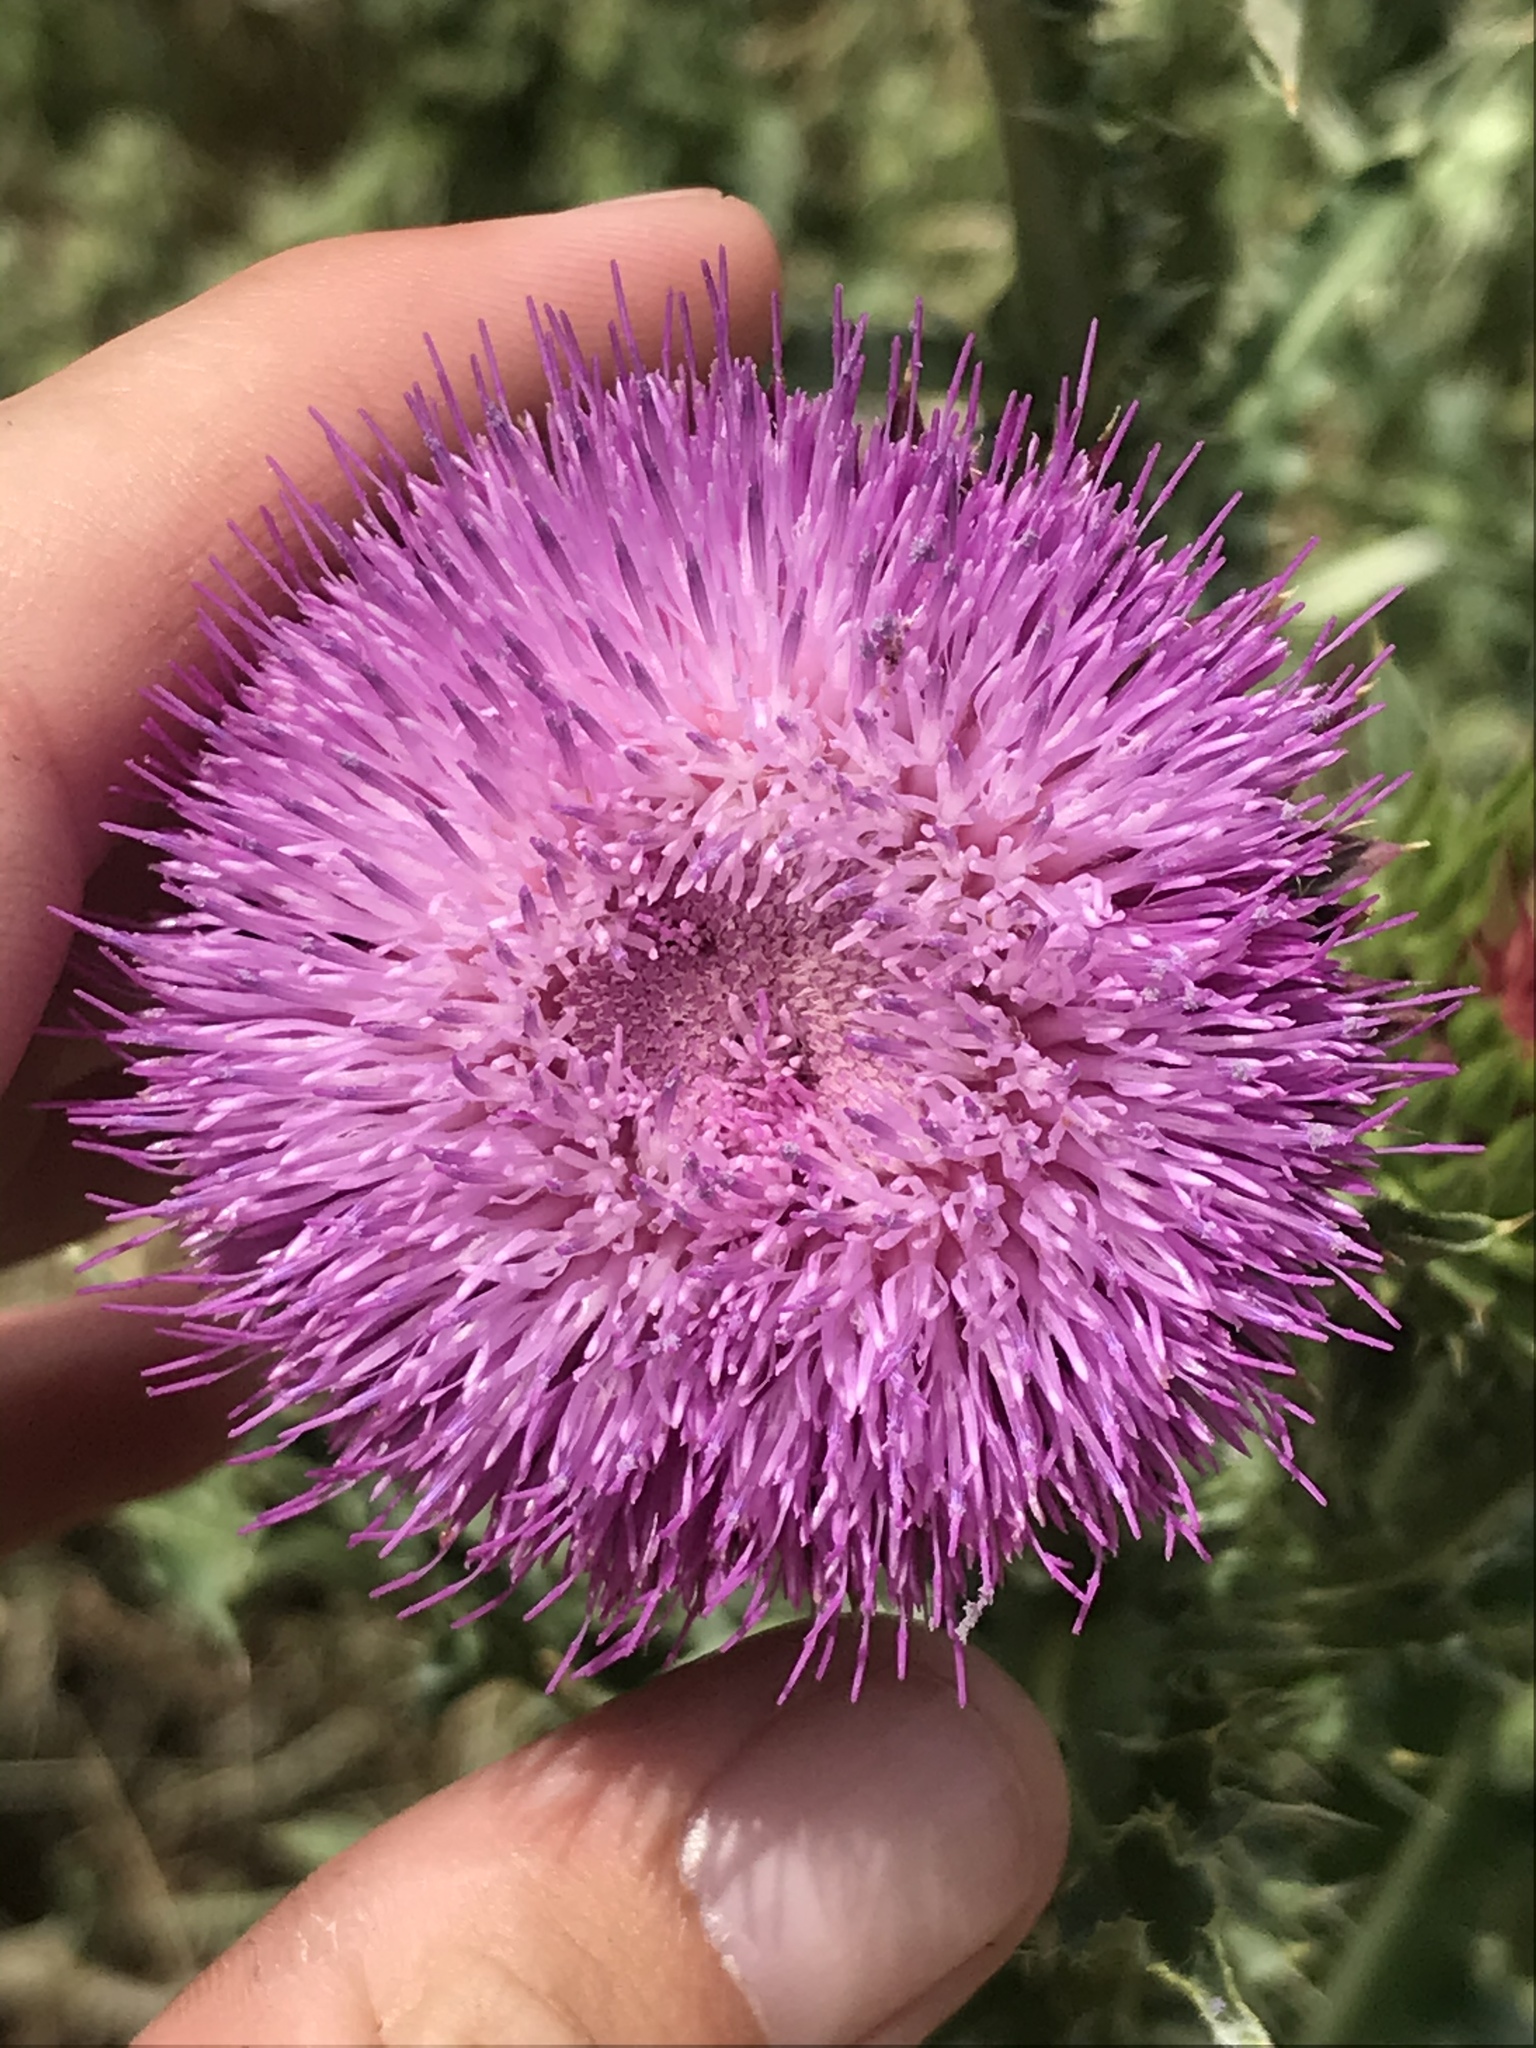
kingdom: Plantae
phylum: Tracheophyta
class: Magnoliopsida
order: Asterales
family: Asteraceae
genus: Carduus
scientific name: Carduus nutans
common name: Musk thistle
